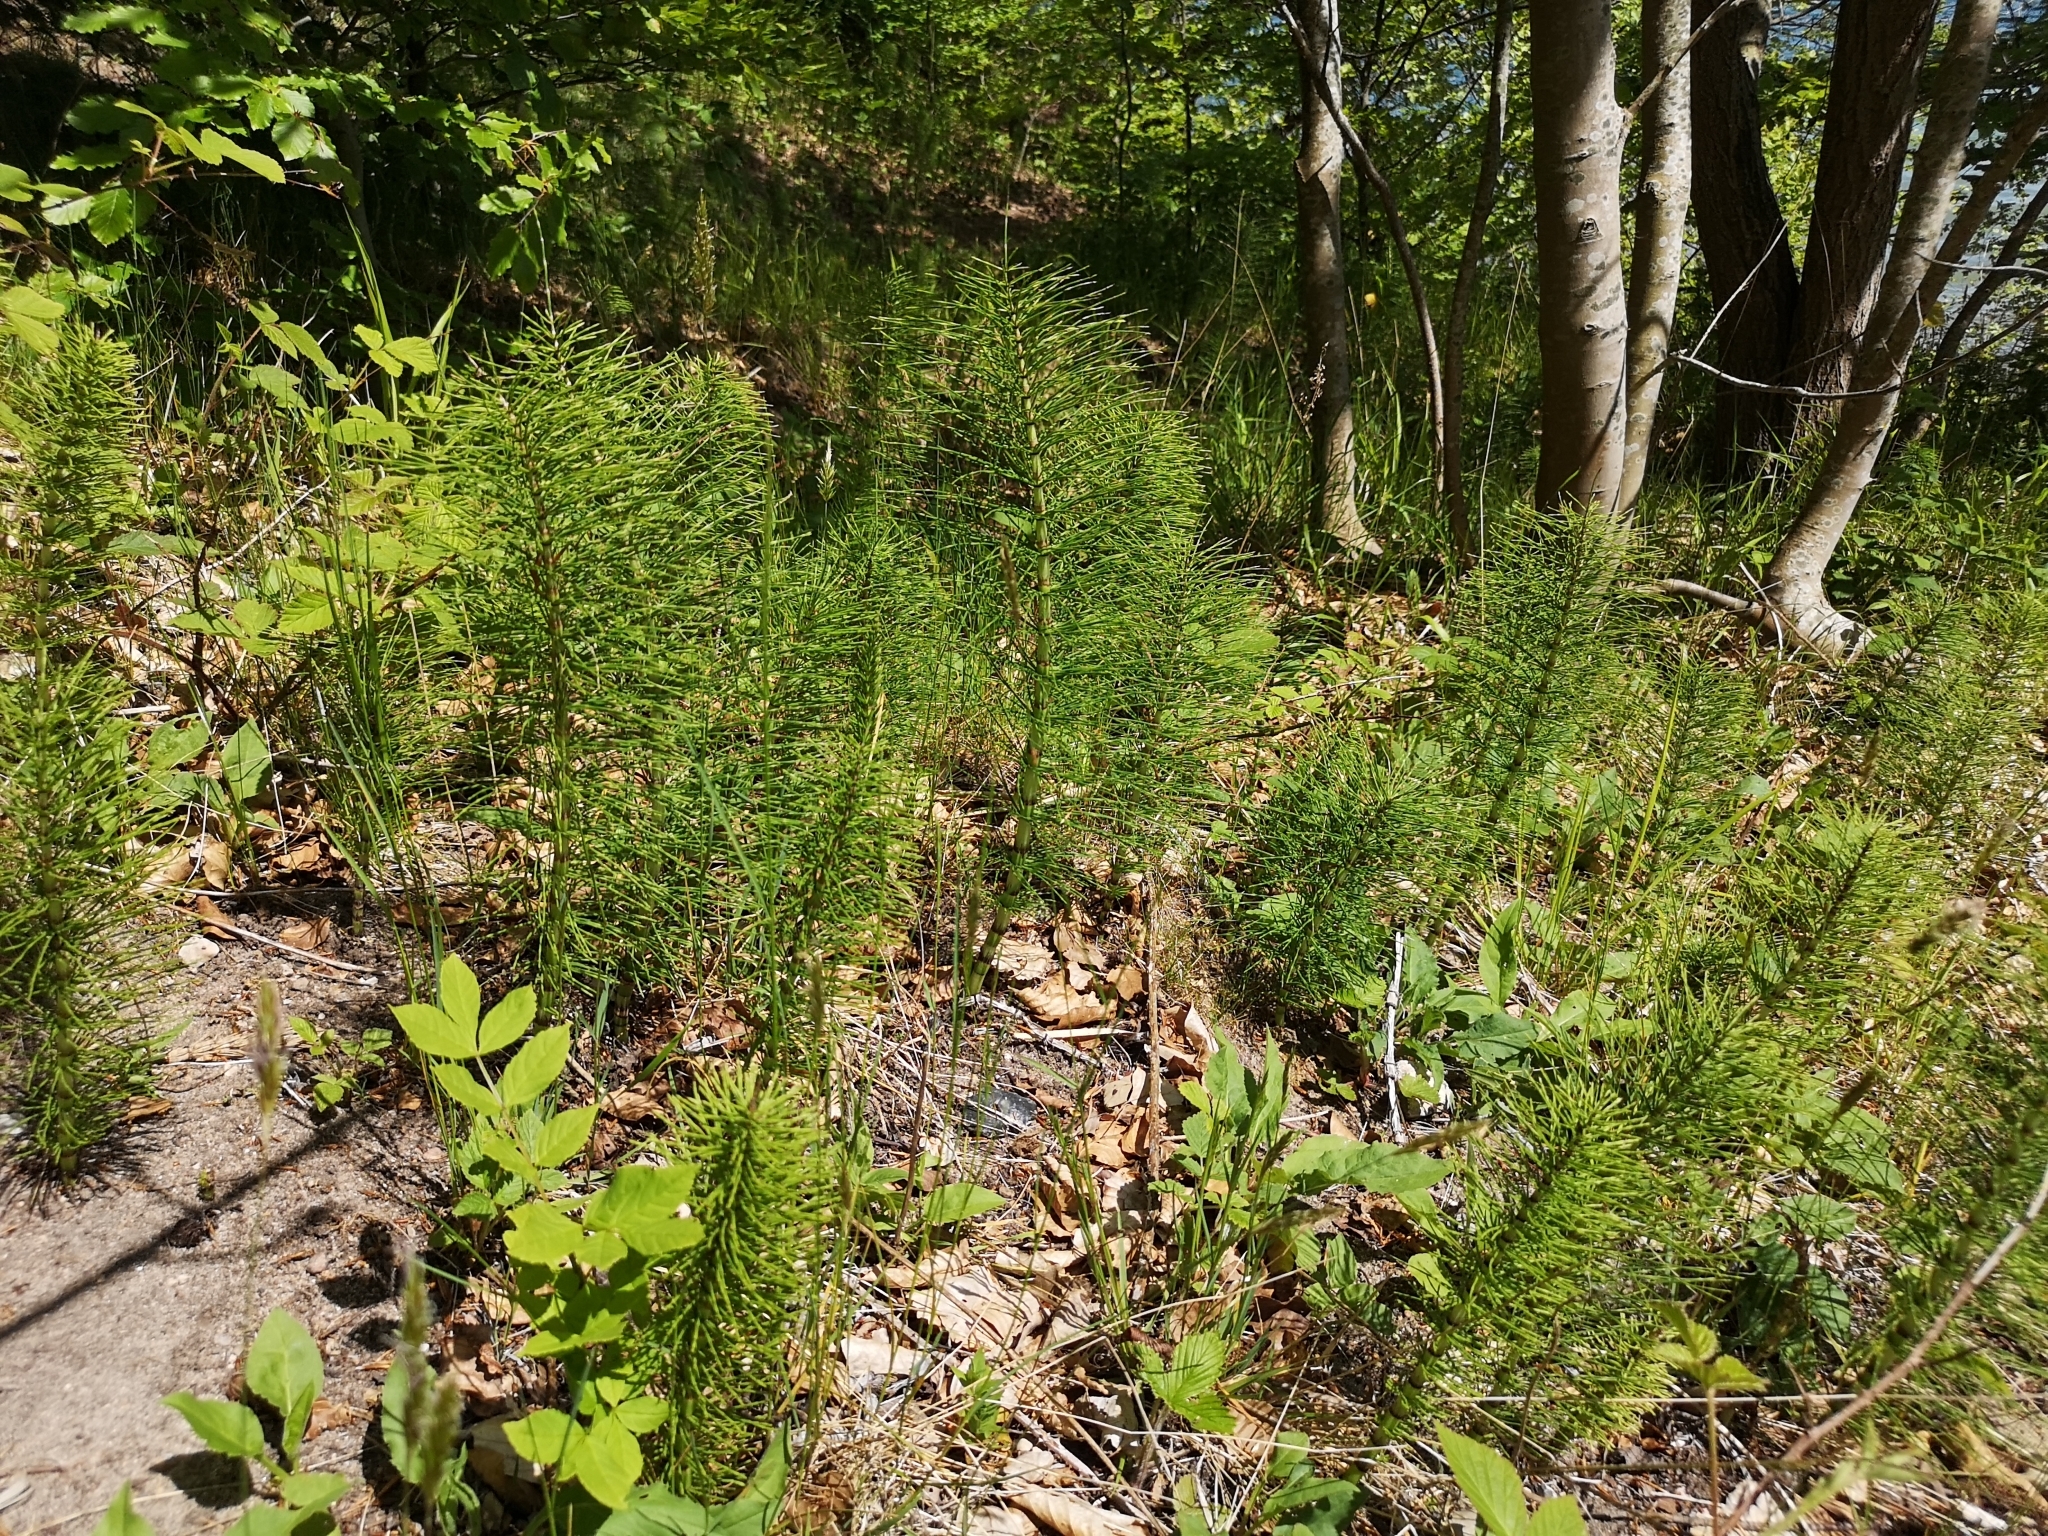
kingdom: Plantae
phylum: Tracheophyta
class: Polypodiopsida
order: Equisetales
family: Equisetaceae
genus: Equisetum
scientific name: Equisetum telmateia
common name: Great horsetail
